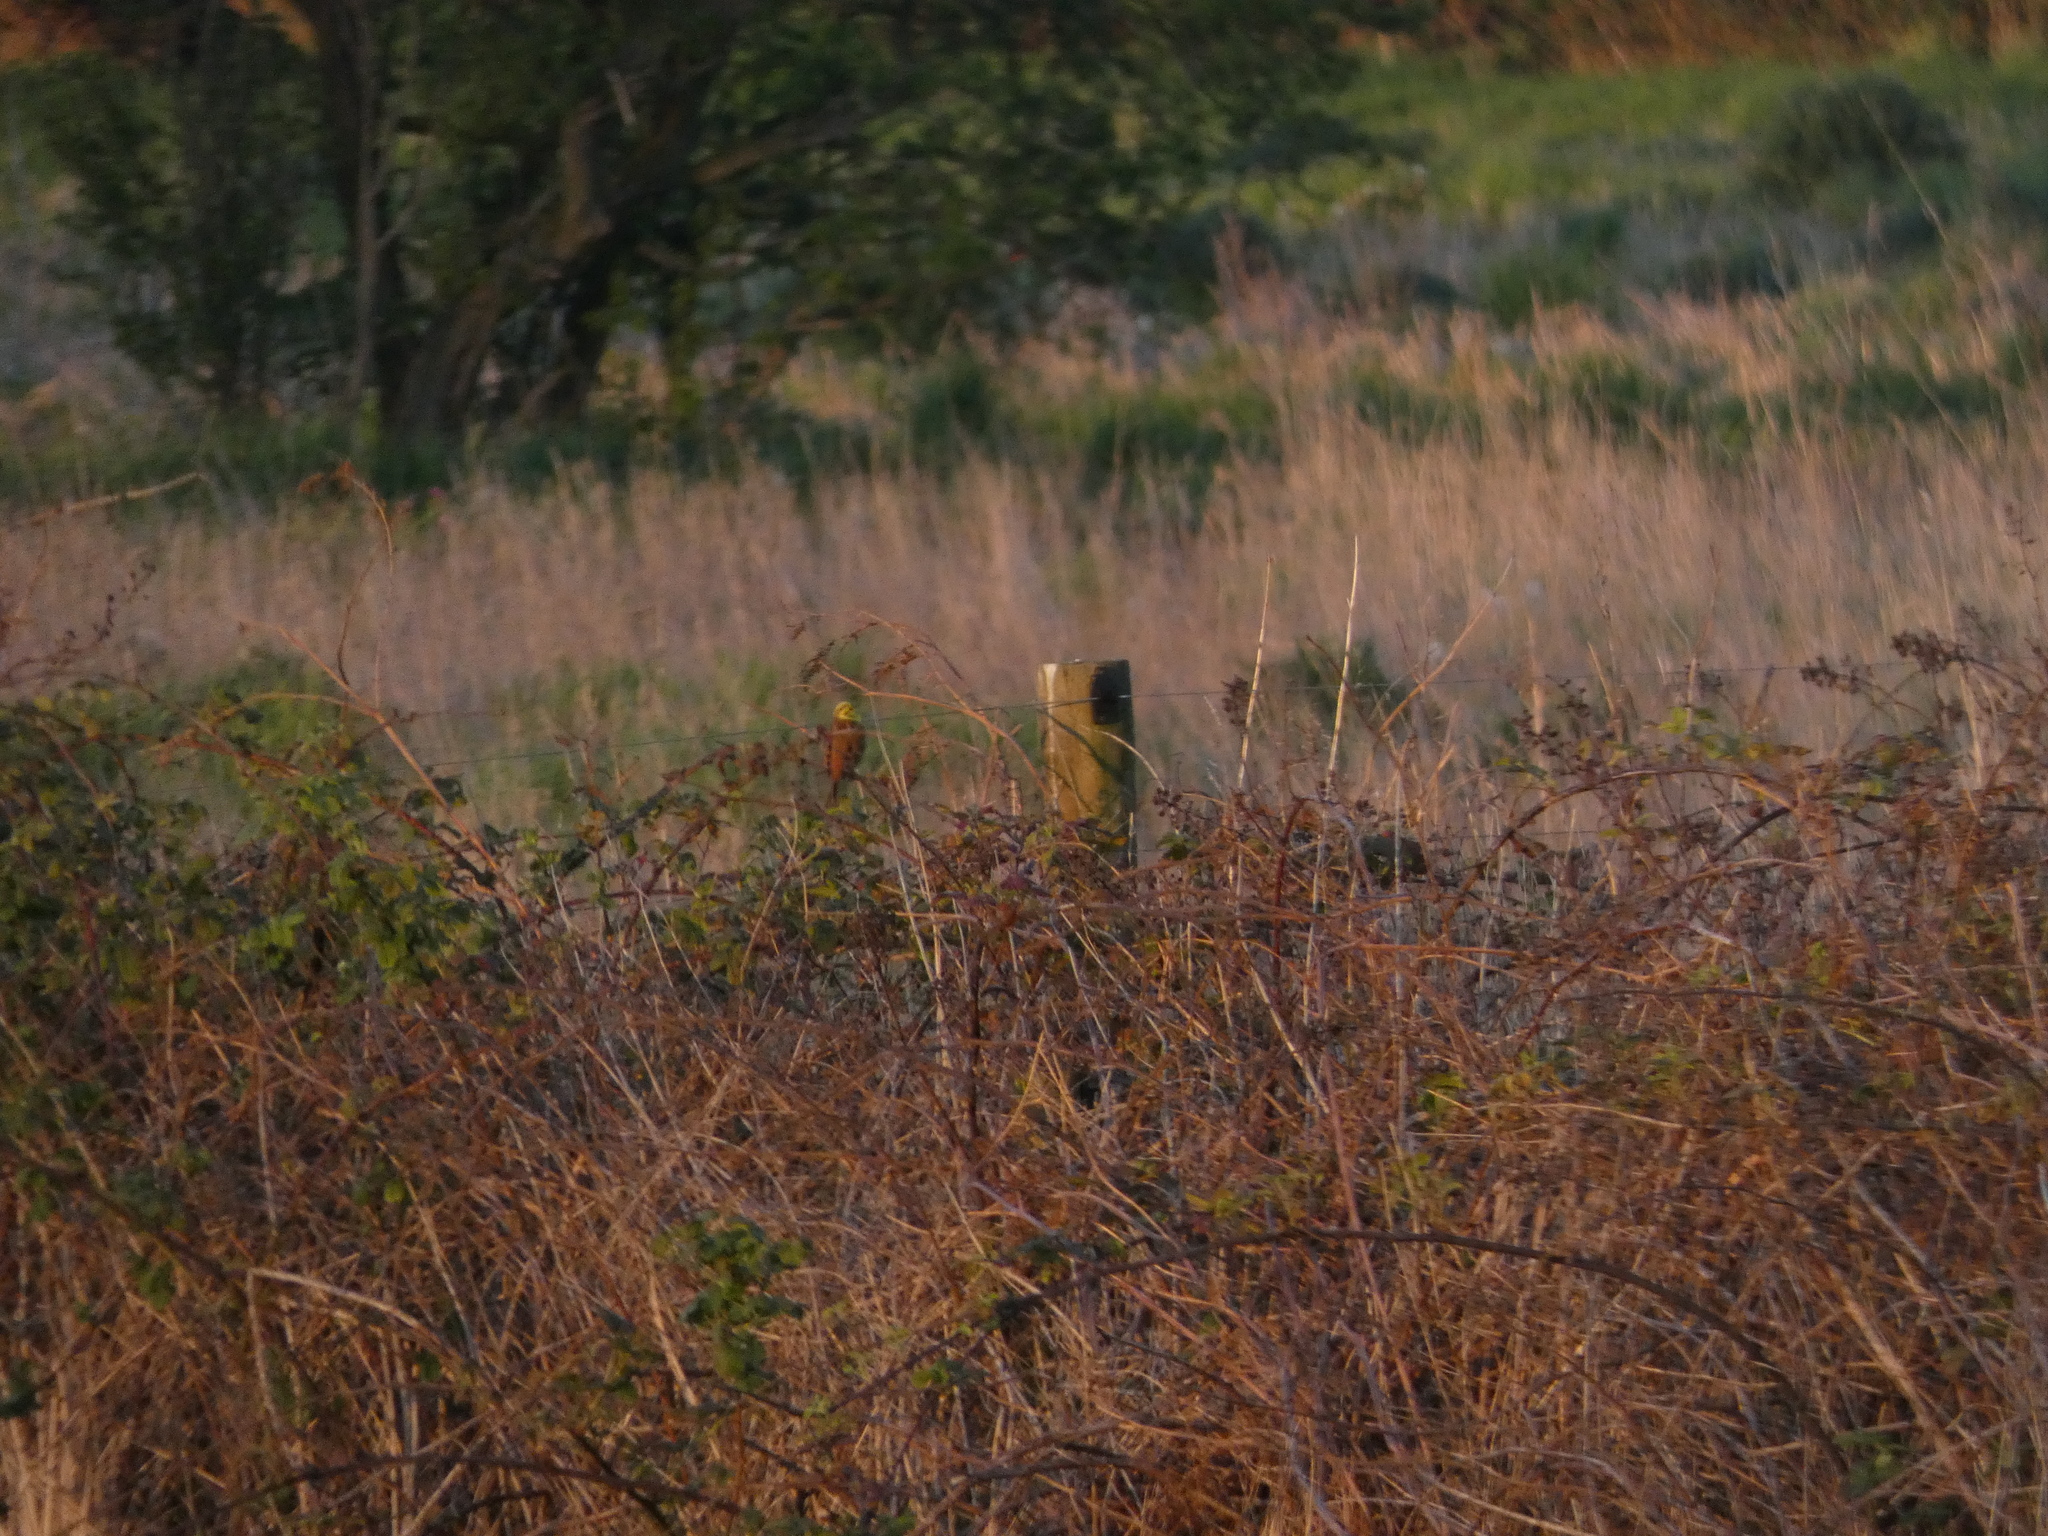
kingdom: Animalia
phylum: Chordata
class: Aves
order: Passeriformes
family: Emberizidae
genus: Emberiza
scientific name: Emberiza citrinella
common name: Yellowhammer
